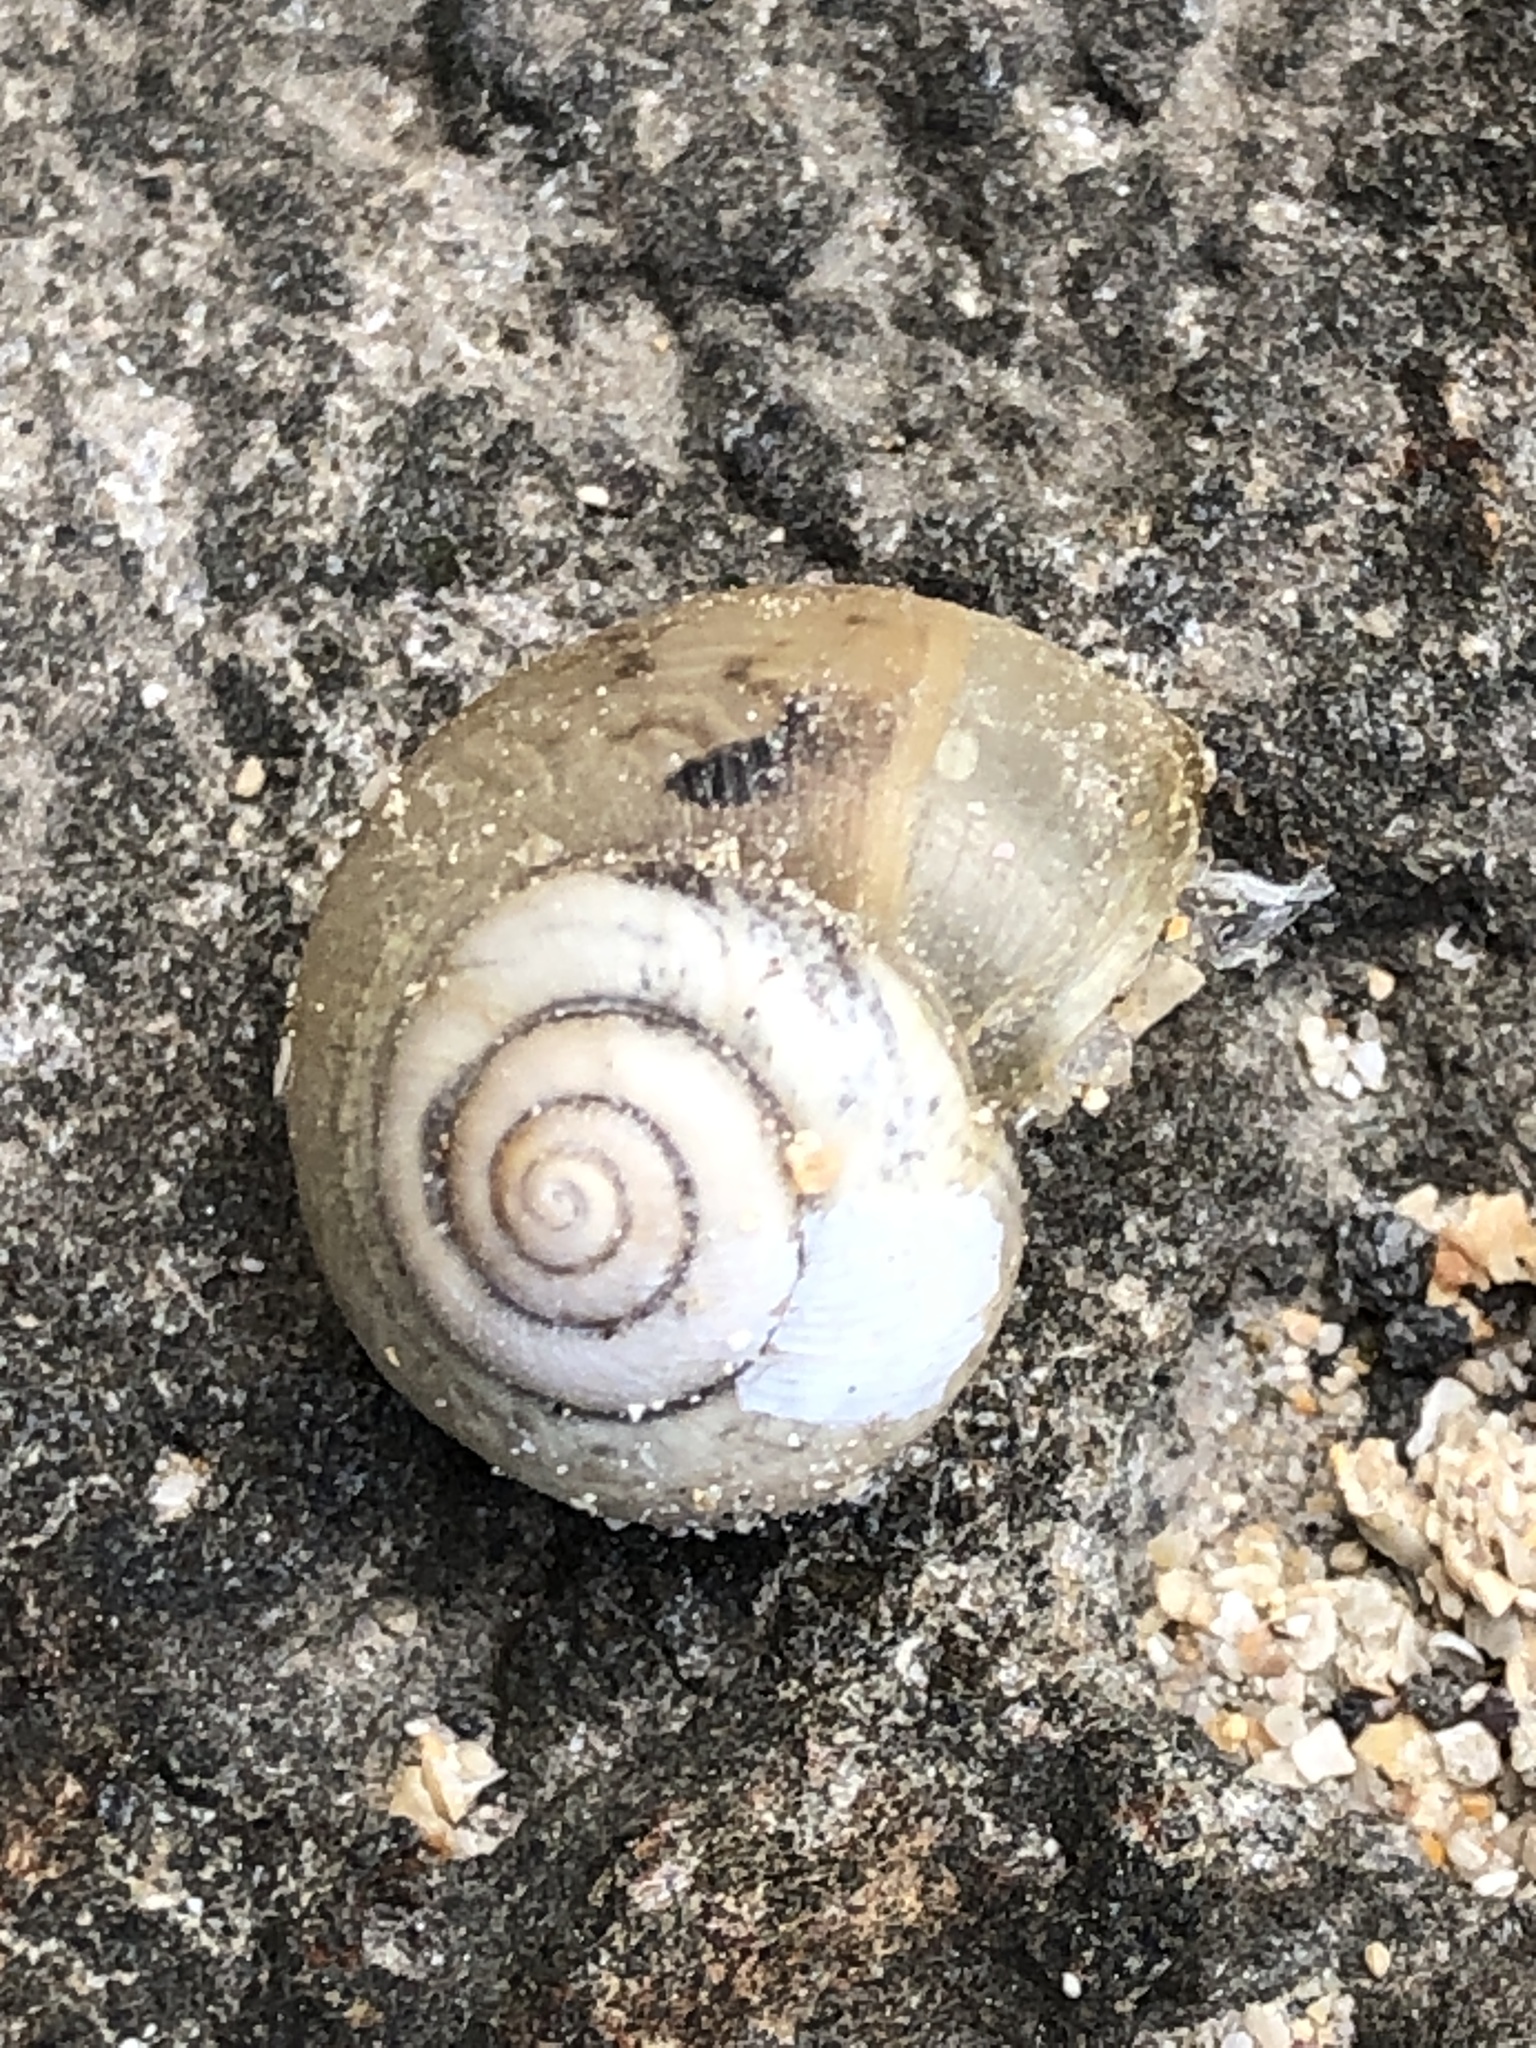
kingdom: Animalia
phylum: Mollusca
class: Gastropoda
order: Stylommatophora
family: Camaenidae
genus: Acusta
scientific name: Acusta redfieldi
